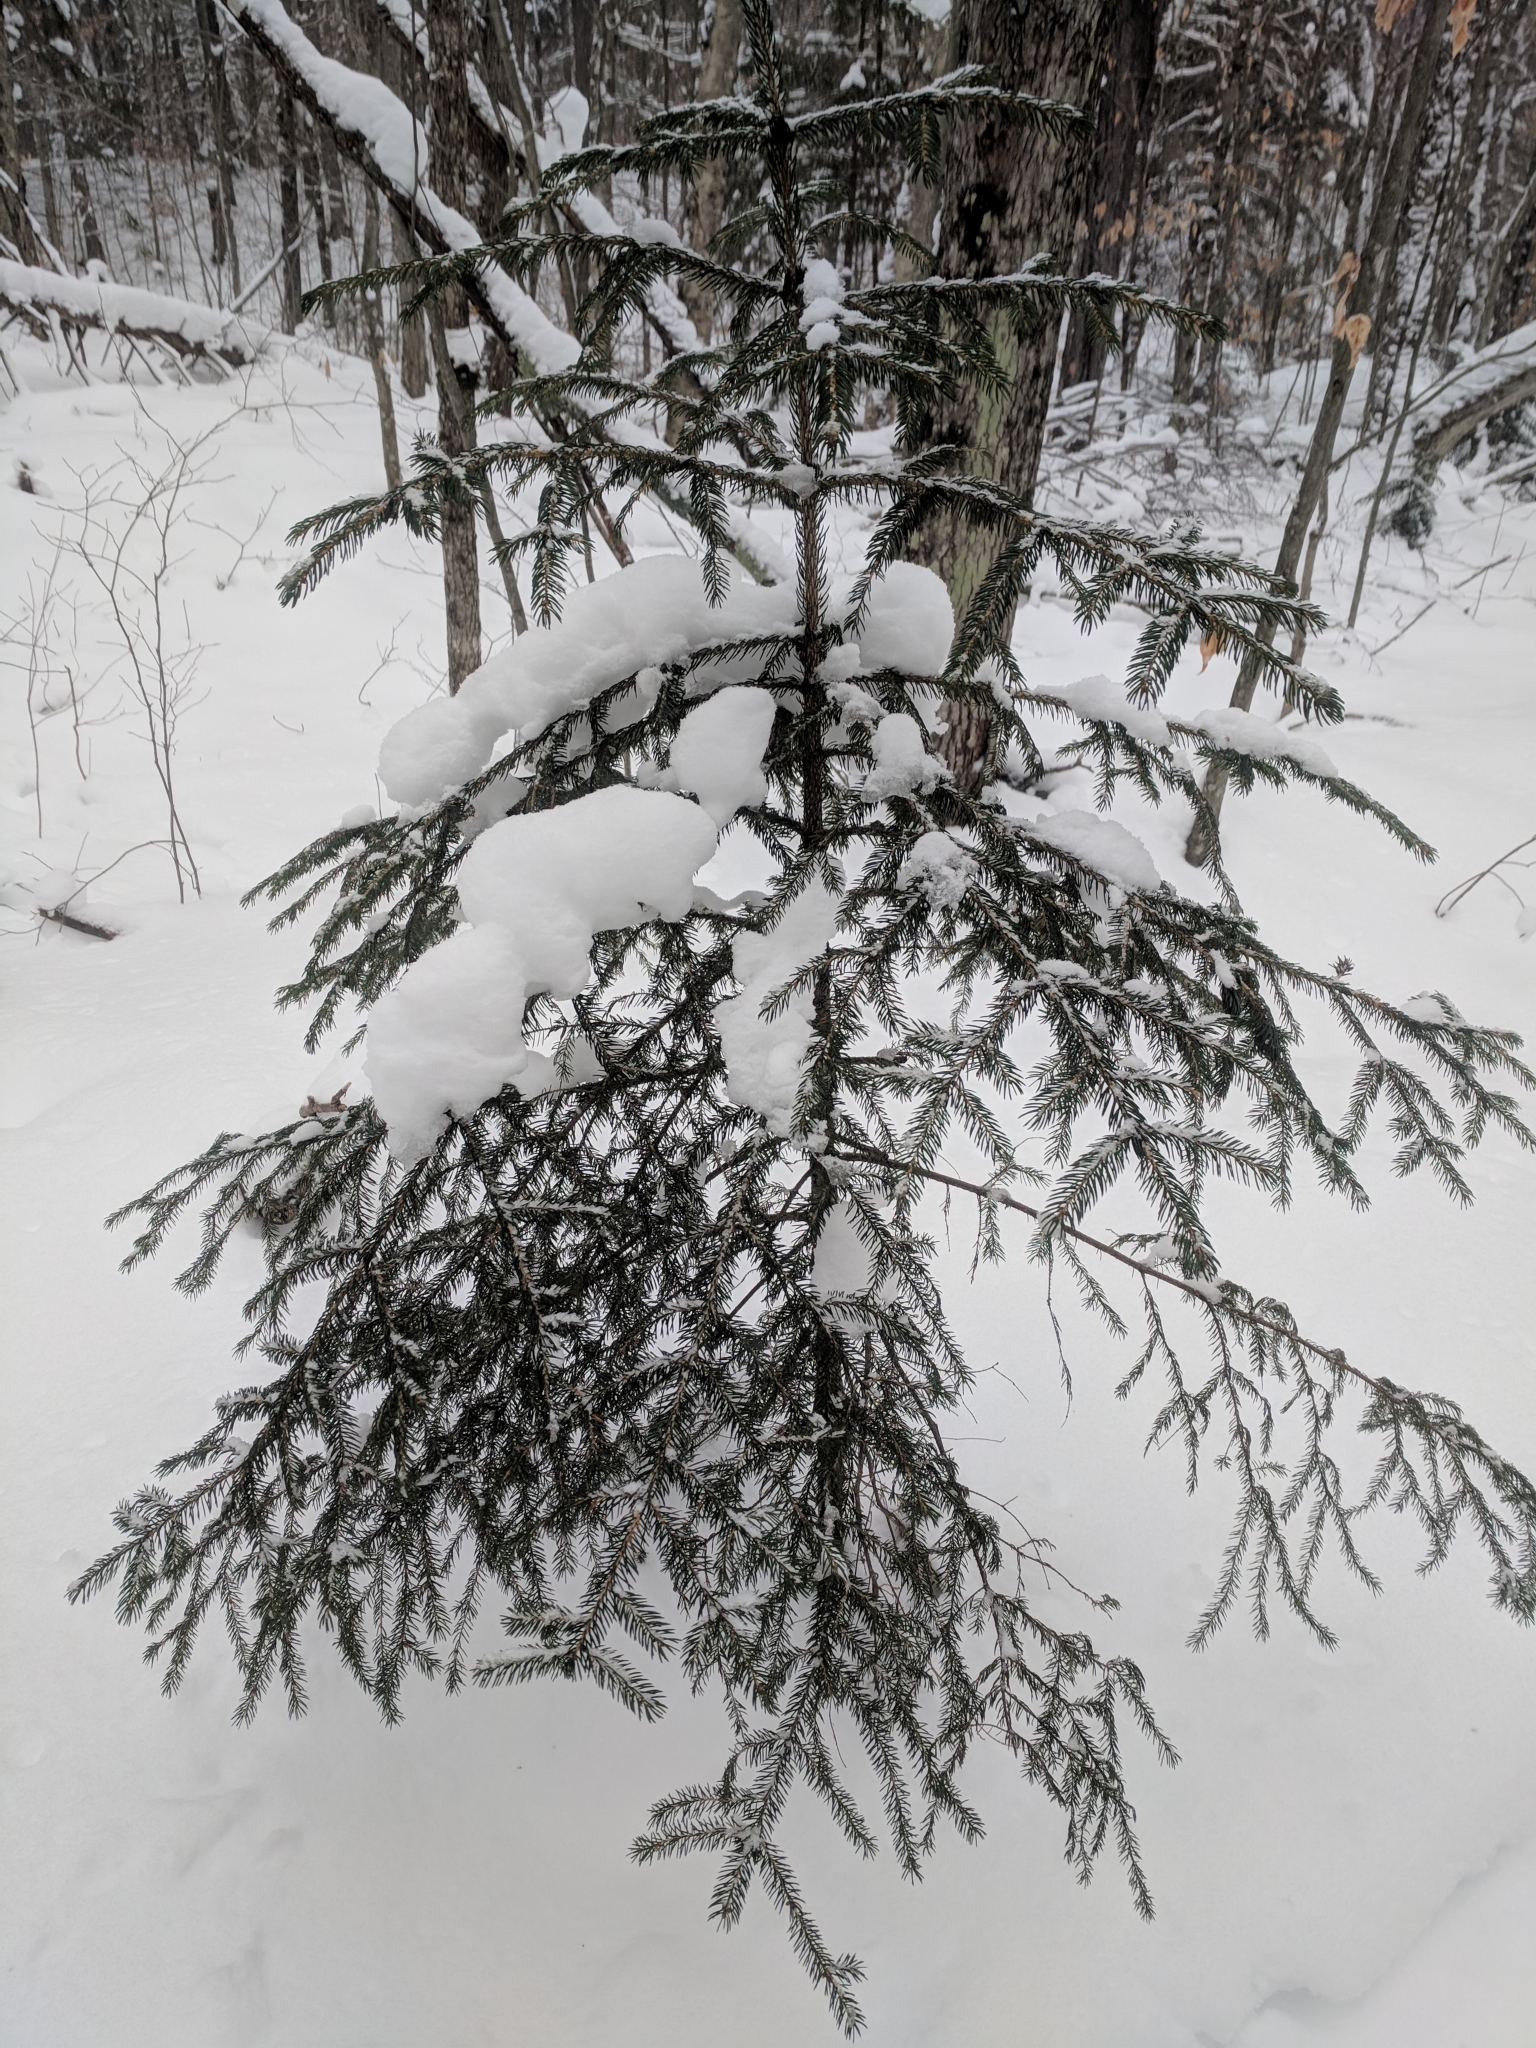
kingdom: Plantae
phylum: Tracheophyta
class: Pinopsida
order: Pinales
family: Pinaceae
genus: Picea
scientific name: Picea rubens
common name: Red spruce
